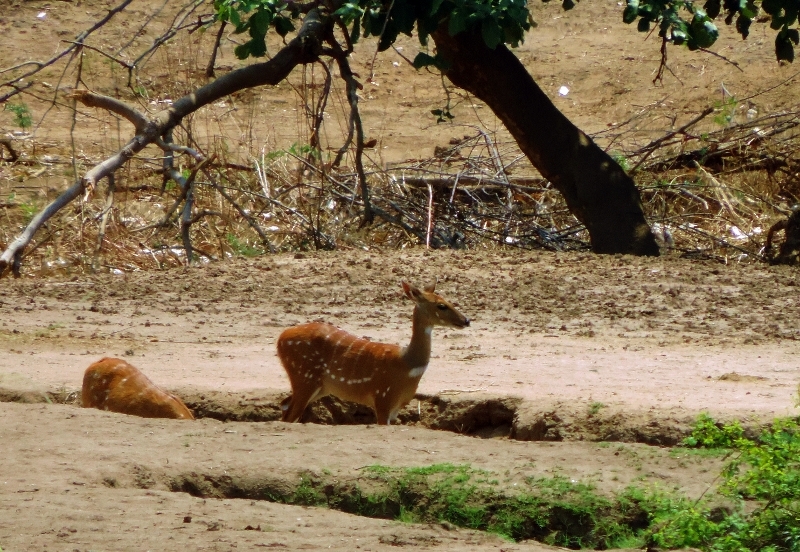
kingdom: Animalia
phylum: Chordata
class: Mammalia
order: Artiodactyla
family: Bovidae
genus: Tragelaphus
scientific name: Tragelaphus scriptus
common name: Bushbuck
